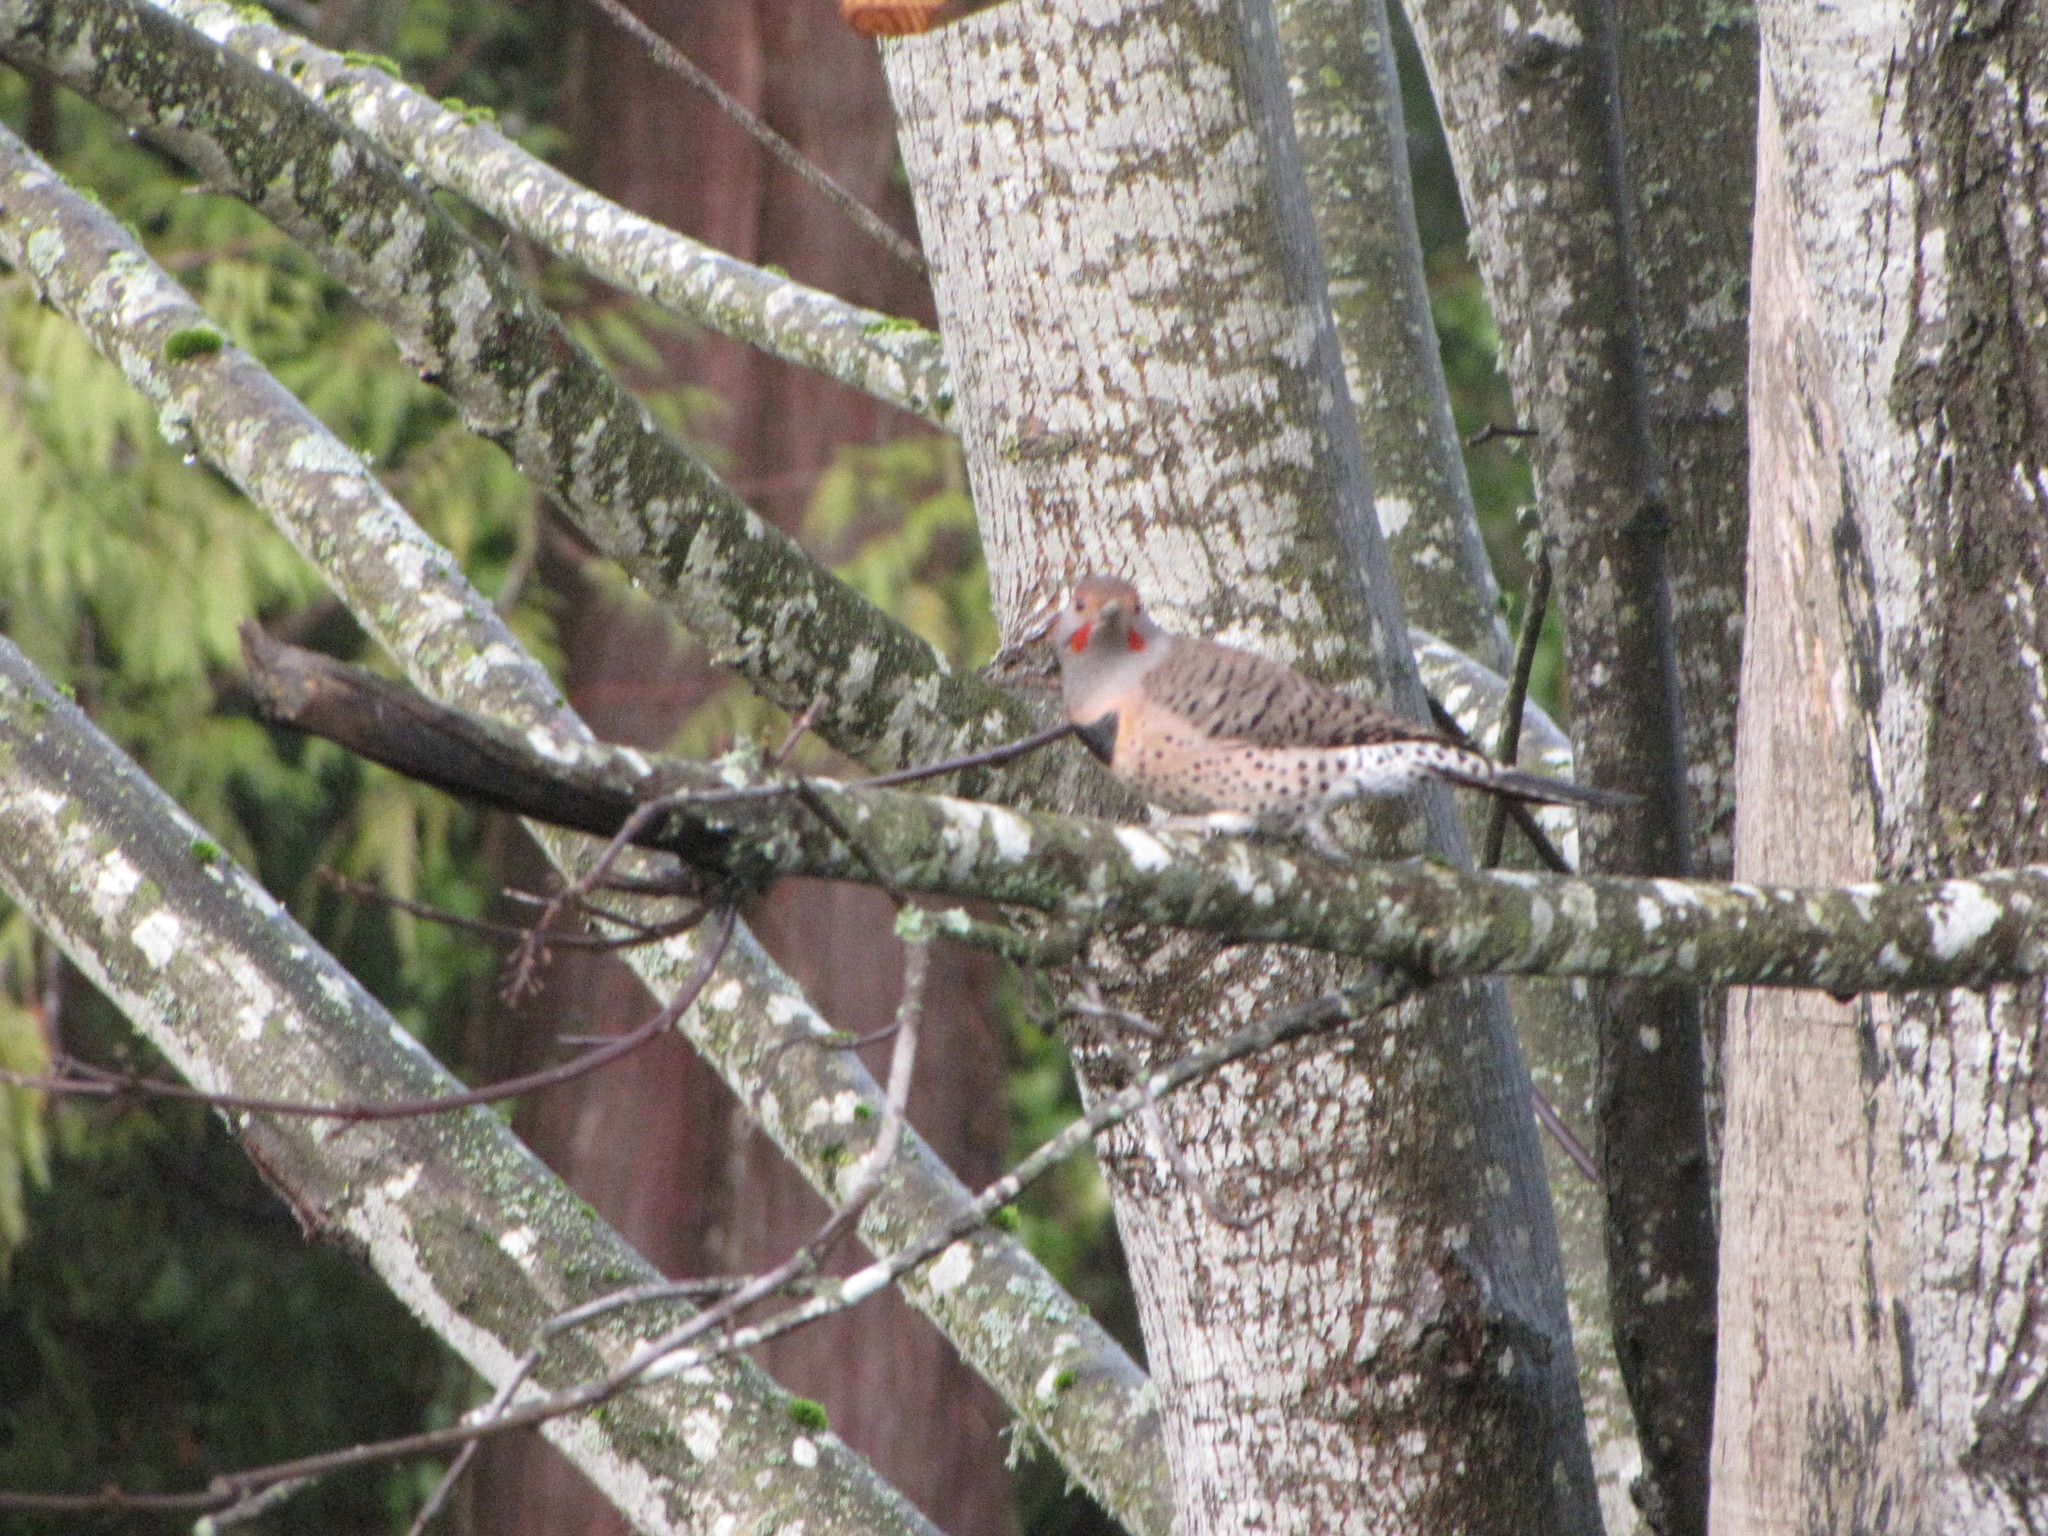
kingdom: Animalia
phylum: Chordata
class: Aves
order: Piciformes
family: Picidae
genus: Colaptes
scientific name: Colaptes auratus
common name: Northern flicker
